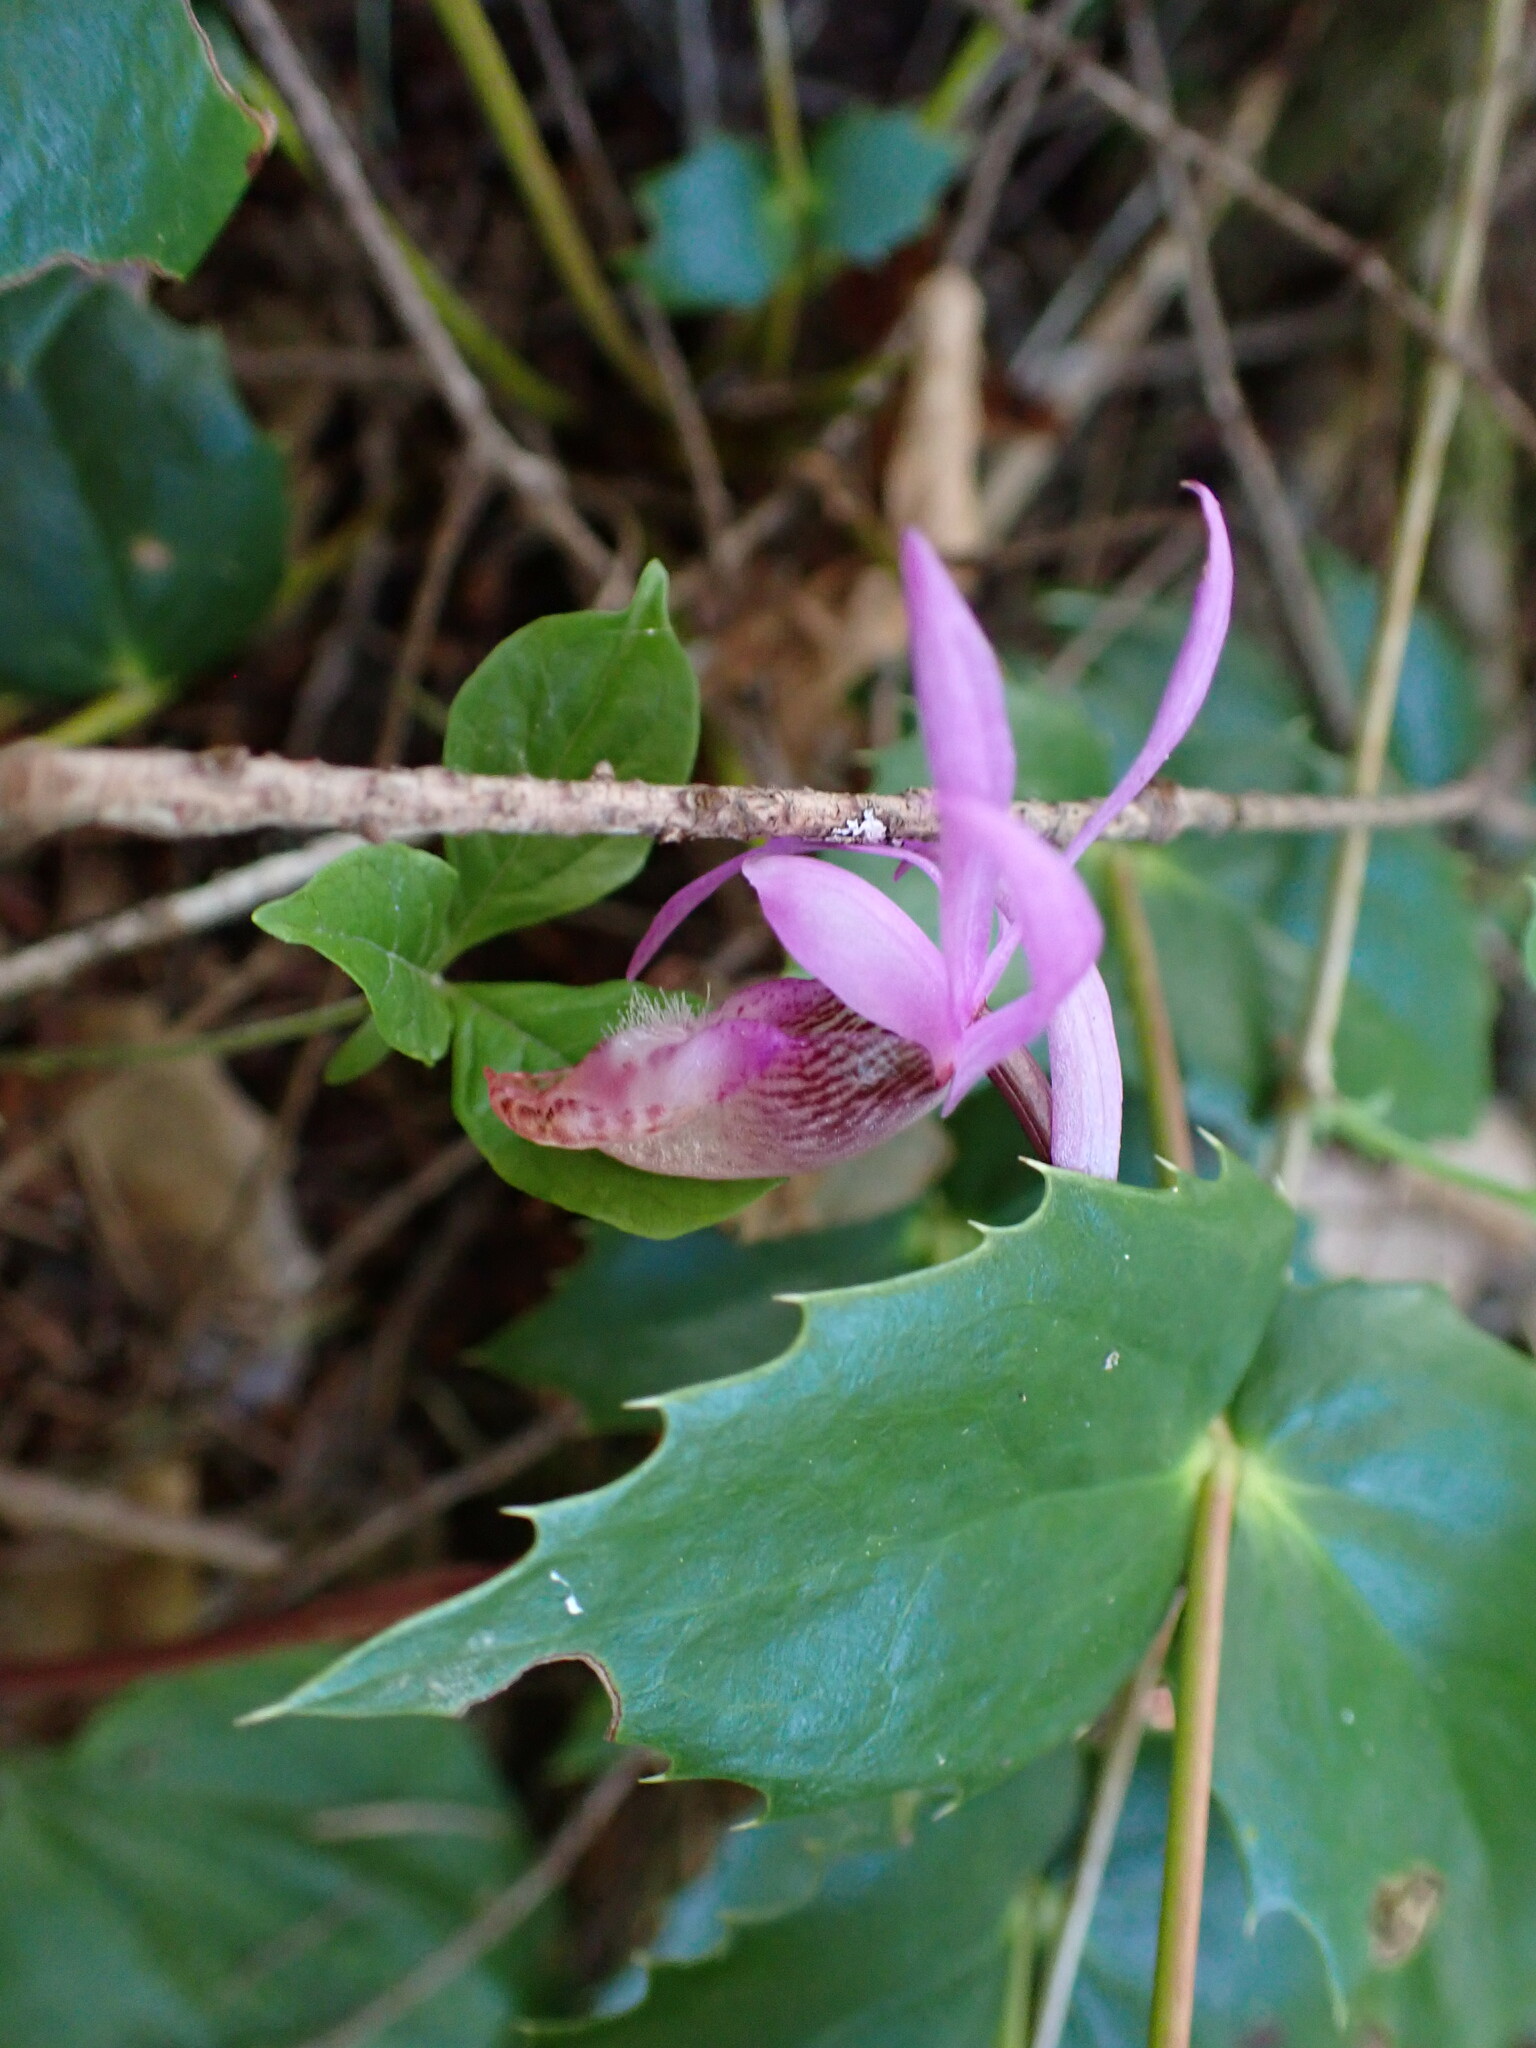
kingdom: Plantae
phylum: Tracheophyta
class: Liliopsida
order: Asparagales
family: Orchidaceae
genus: Calypso
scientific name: Calypso bulbosa
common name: Calypso
